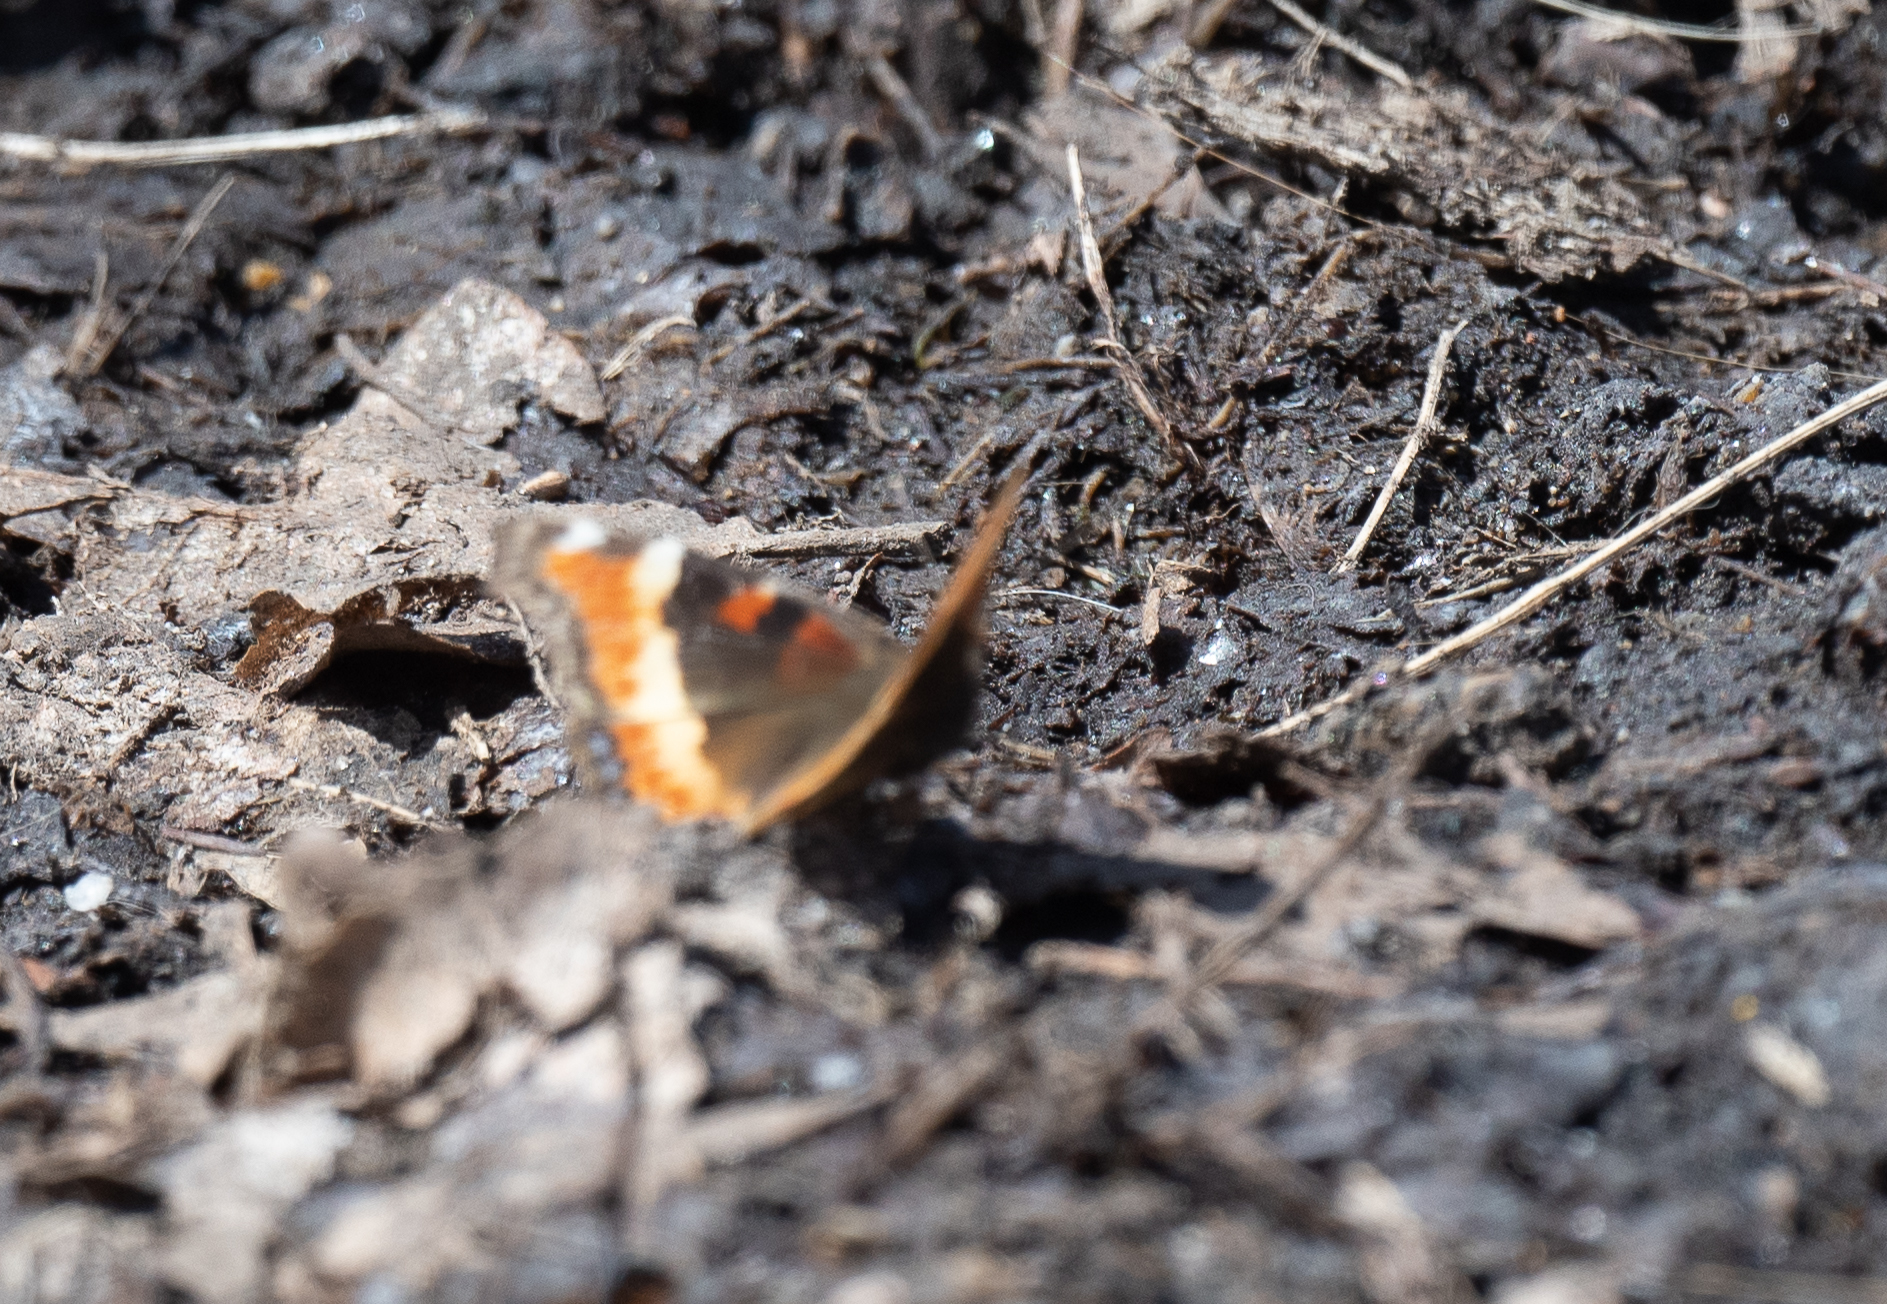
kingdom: Animalia
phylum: Arthropoda
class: Insecta
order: Lepidoptera
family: Nymphalidae
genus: Aglais
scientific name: Aglais milberti
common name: Milbert's tortoiseshell
